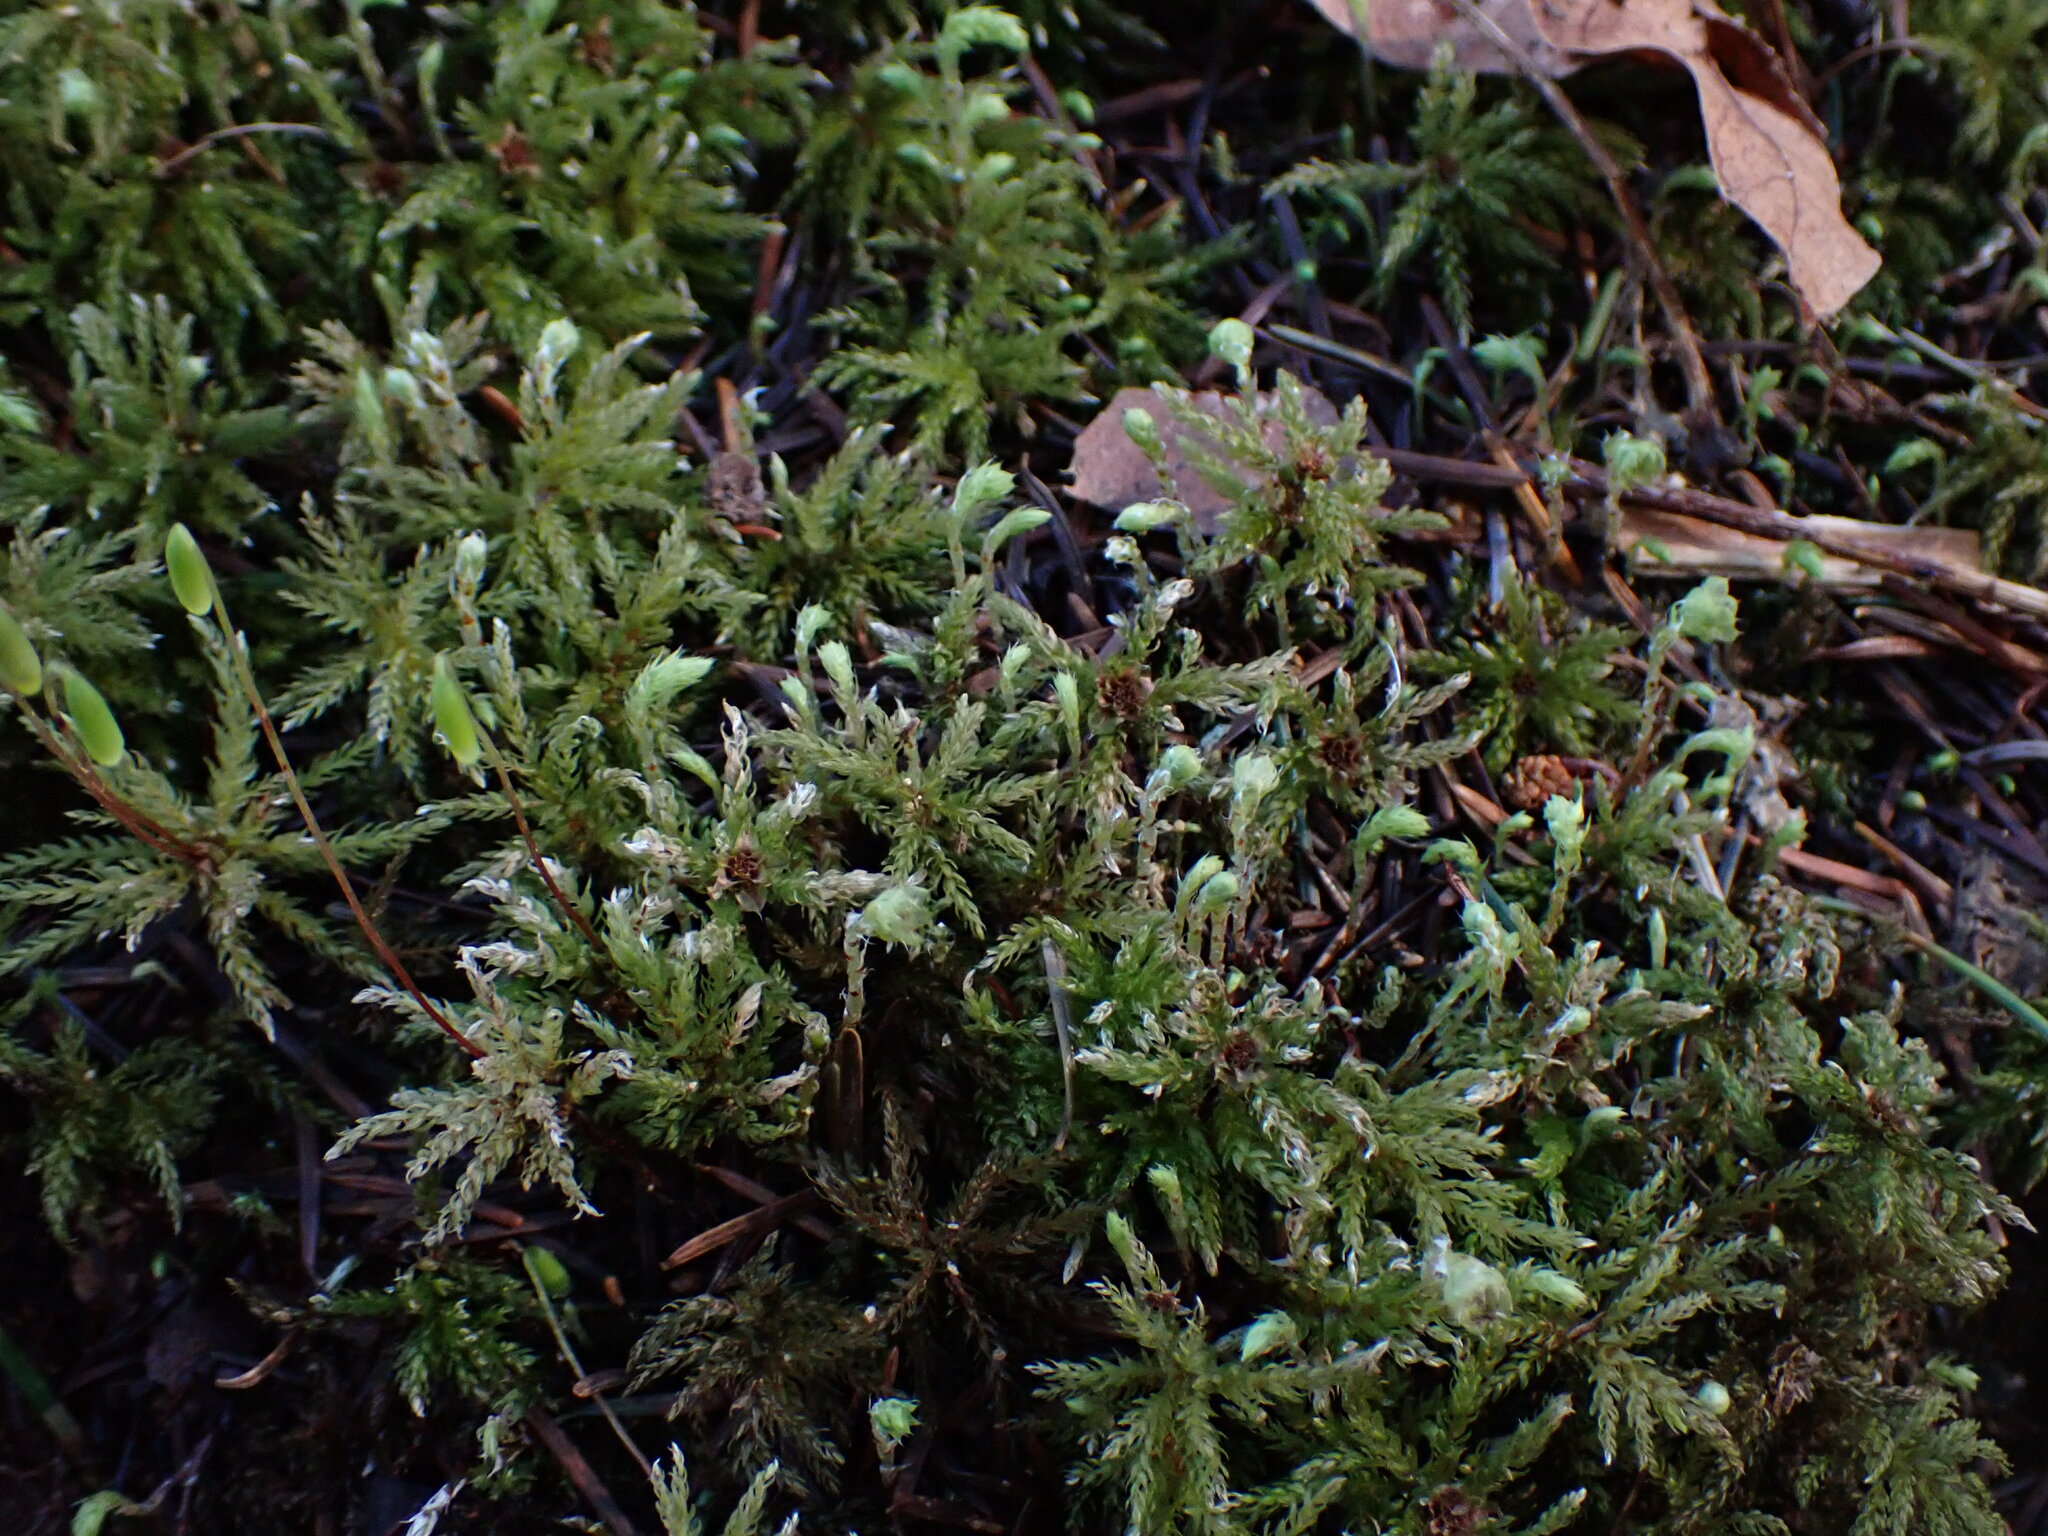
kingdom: Plantae
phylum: Bryophyta
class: Bryopsida
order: Bryales
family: Mniaceae
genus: Leucolepis
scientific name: Leucolepis acanthoneura
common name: Leucolepis umbrella moss
